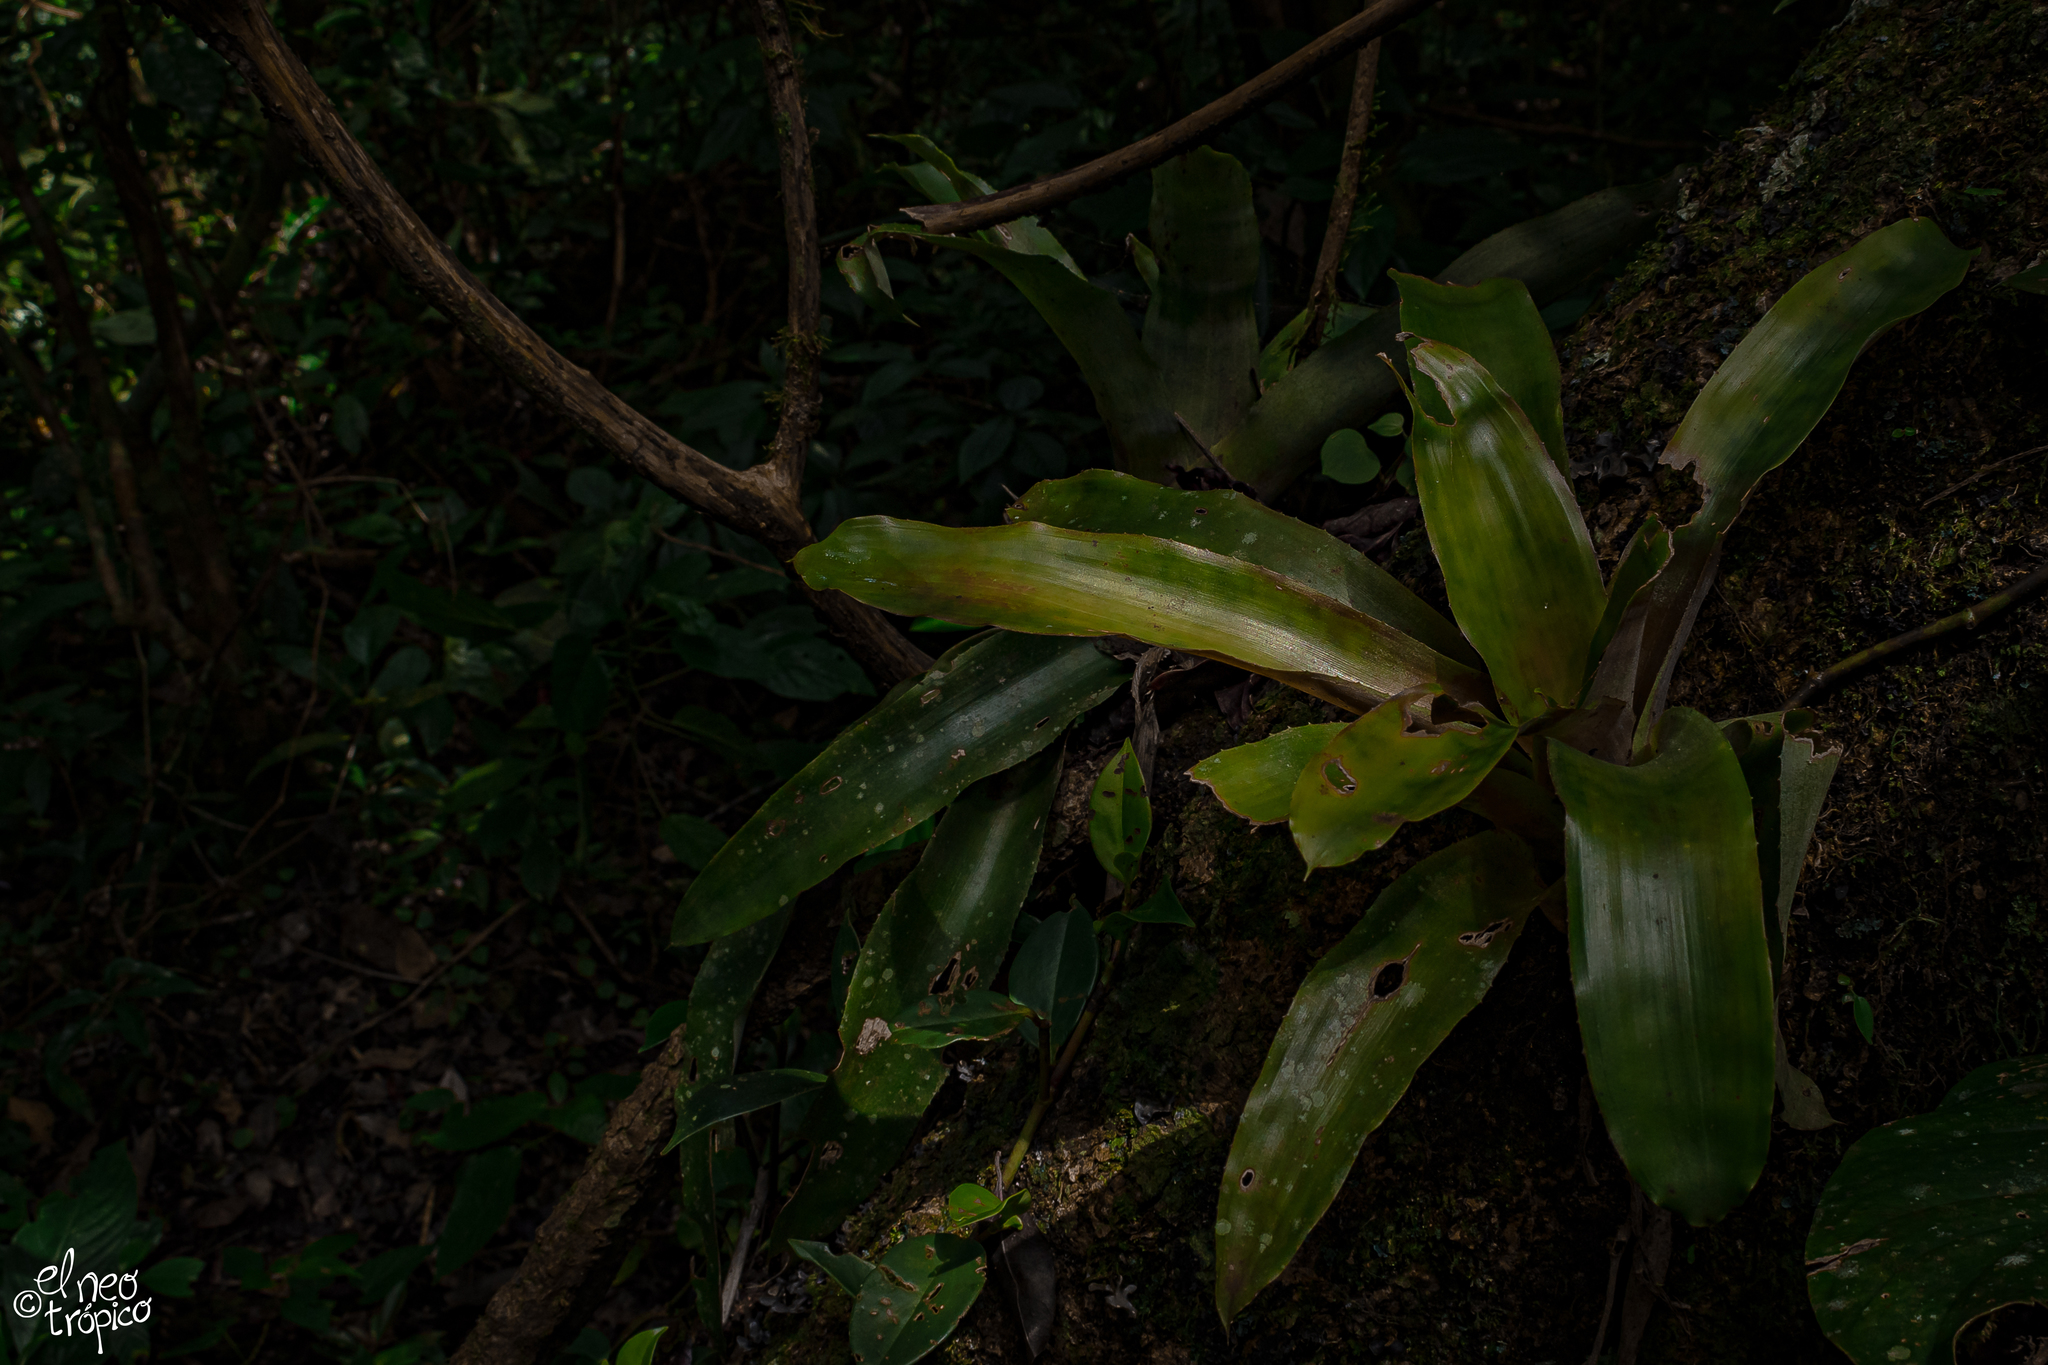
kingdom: Plantae
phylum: Tracheophyta
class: Liliopsida
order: Poales
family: Bromeliaceae
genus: Aechmea
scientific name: Aechmea mexicana
